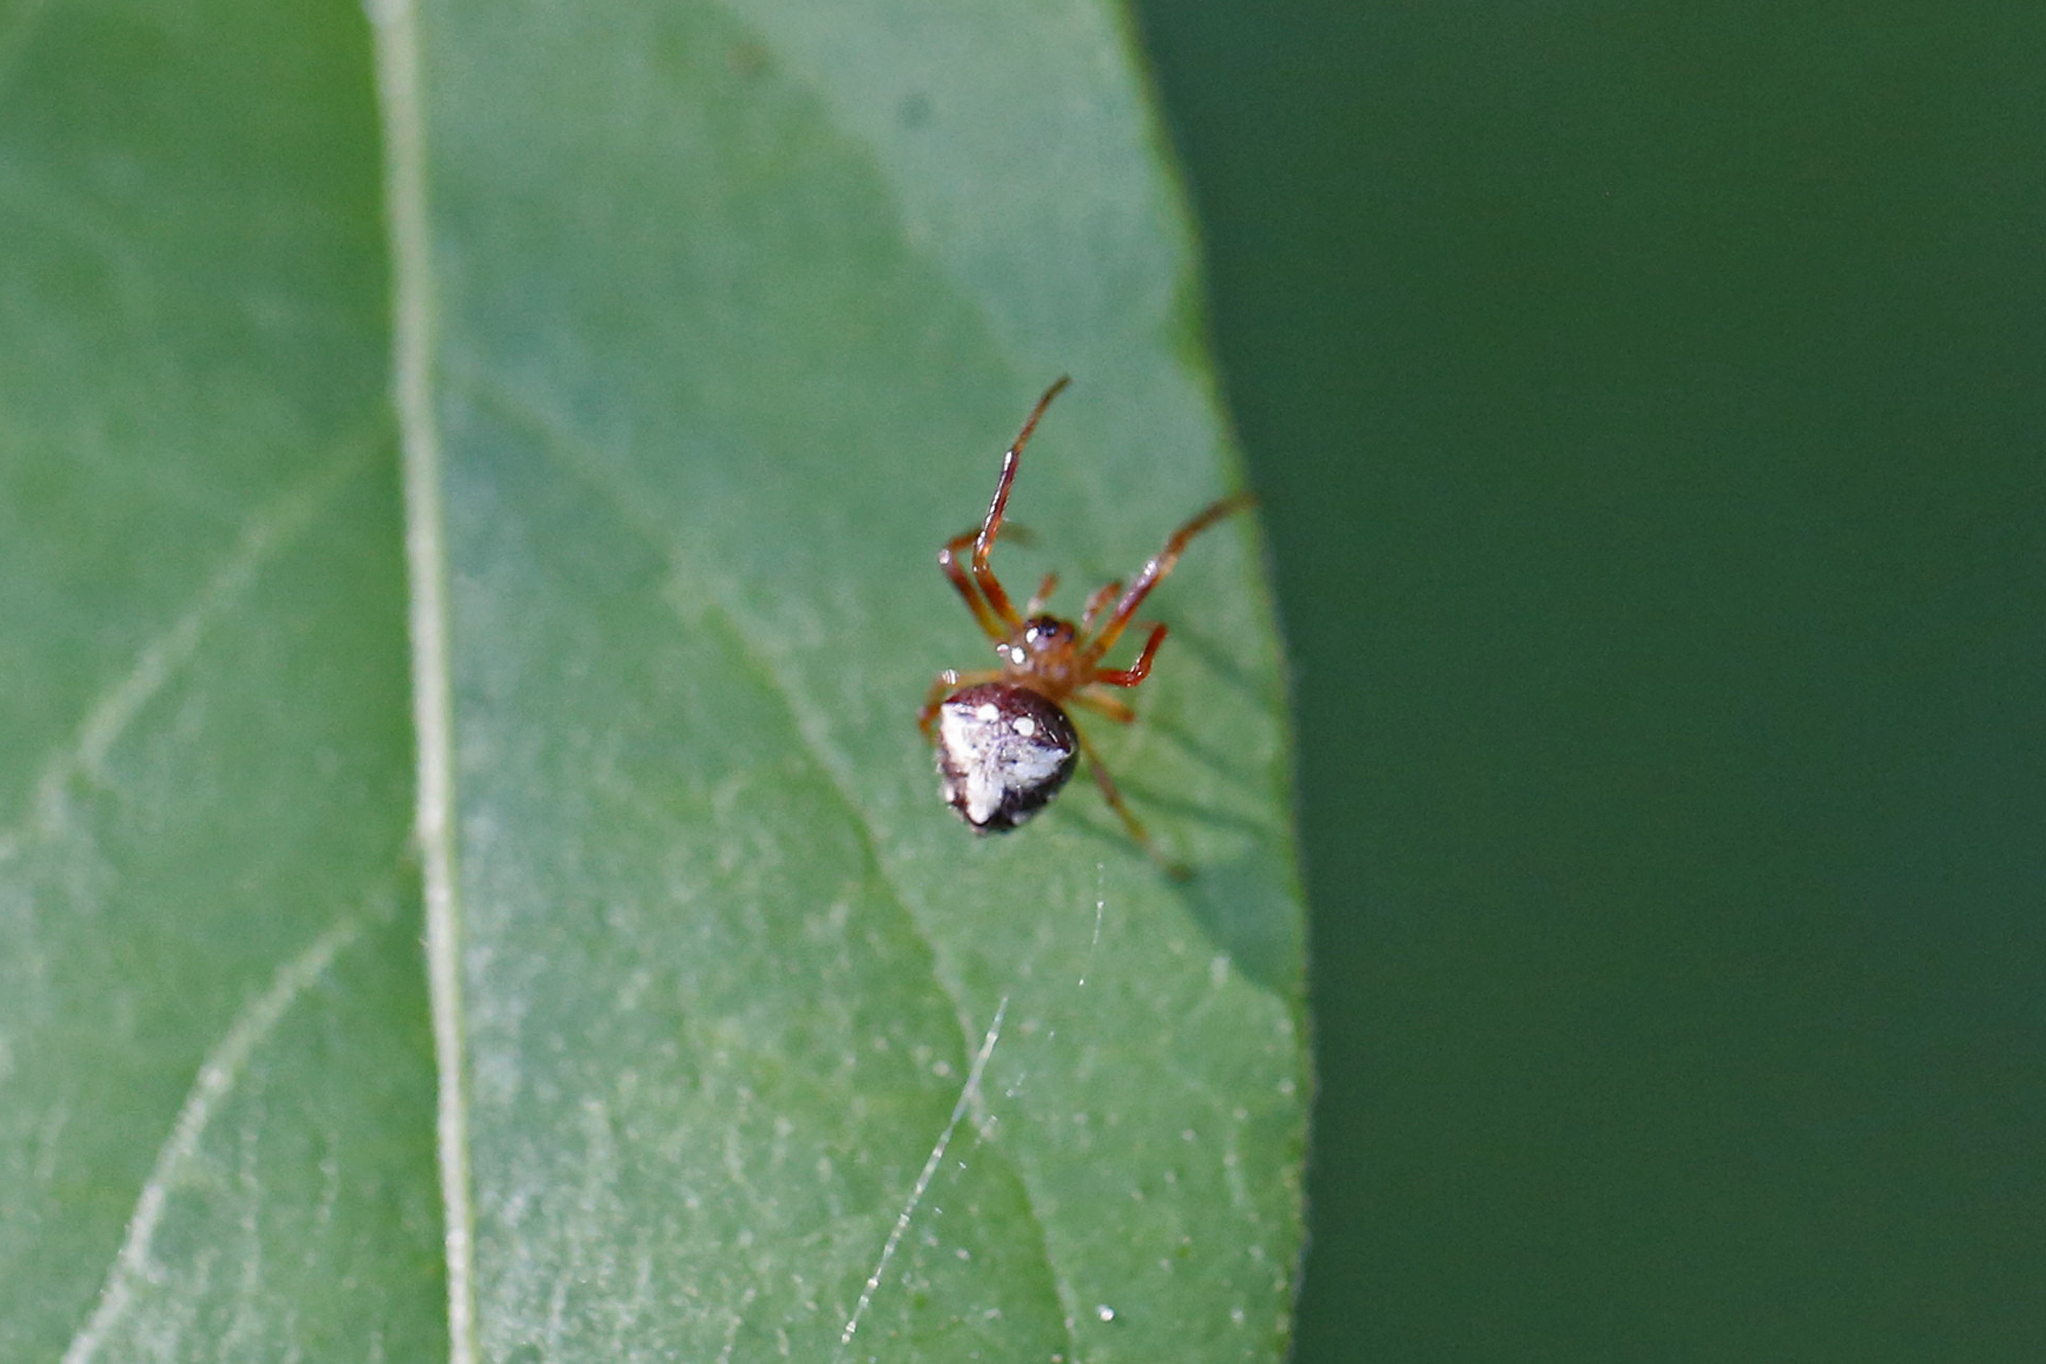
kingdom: Animalia
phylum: Arthropoda
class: Arachnida
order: Araneae
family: Araneidae
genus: Verrucosa
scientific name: Verrucosa arenata
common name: Orb weavers
